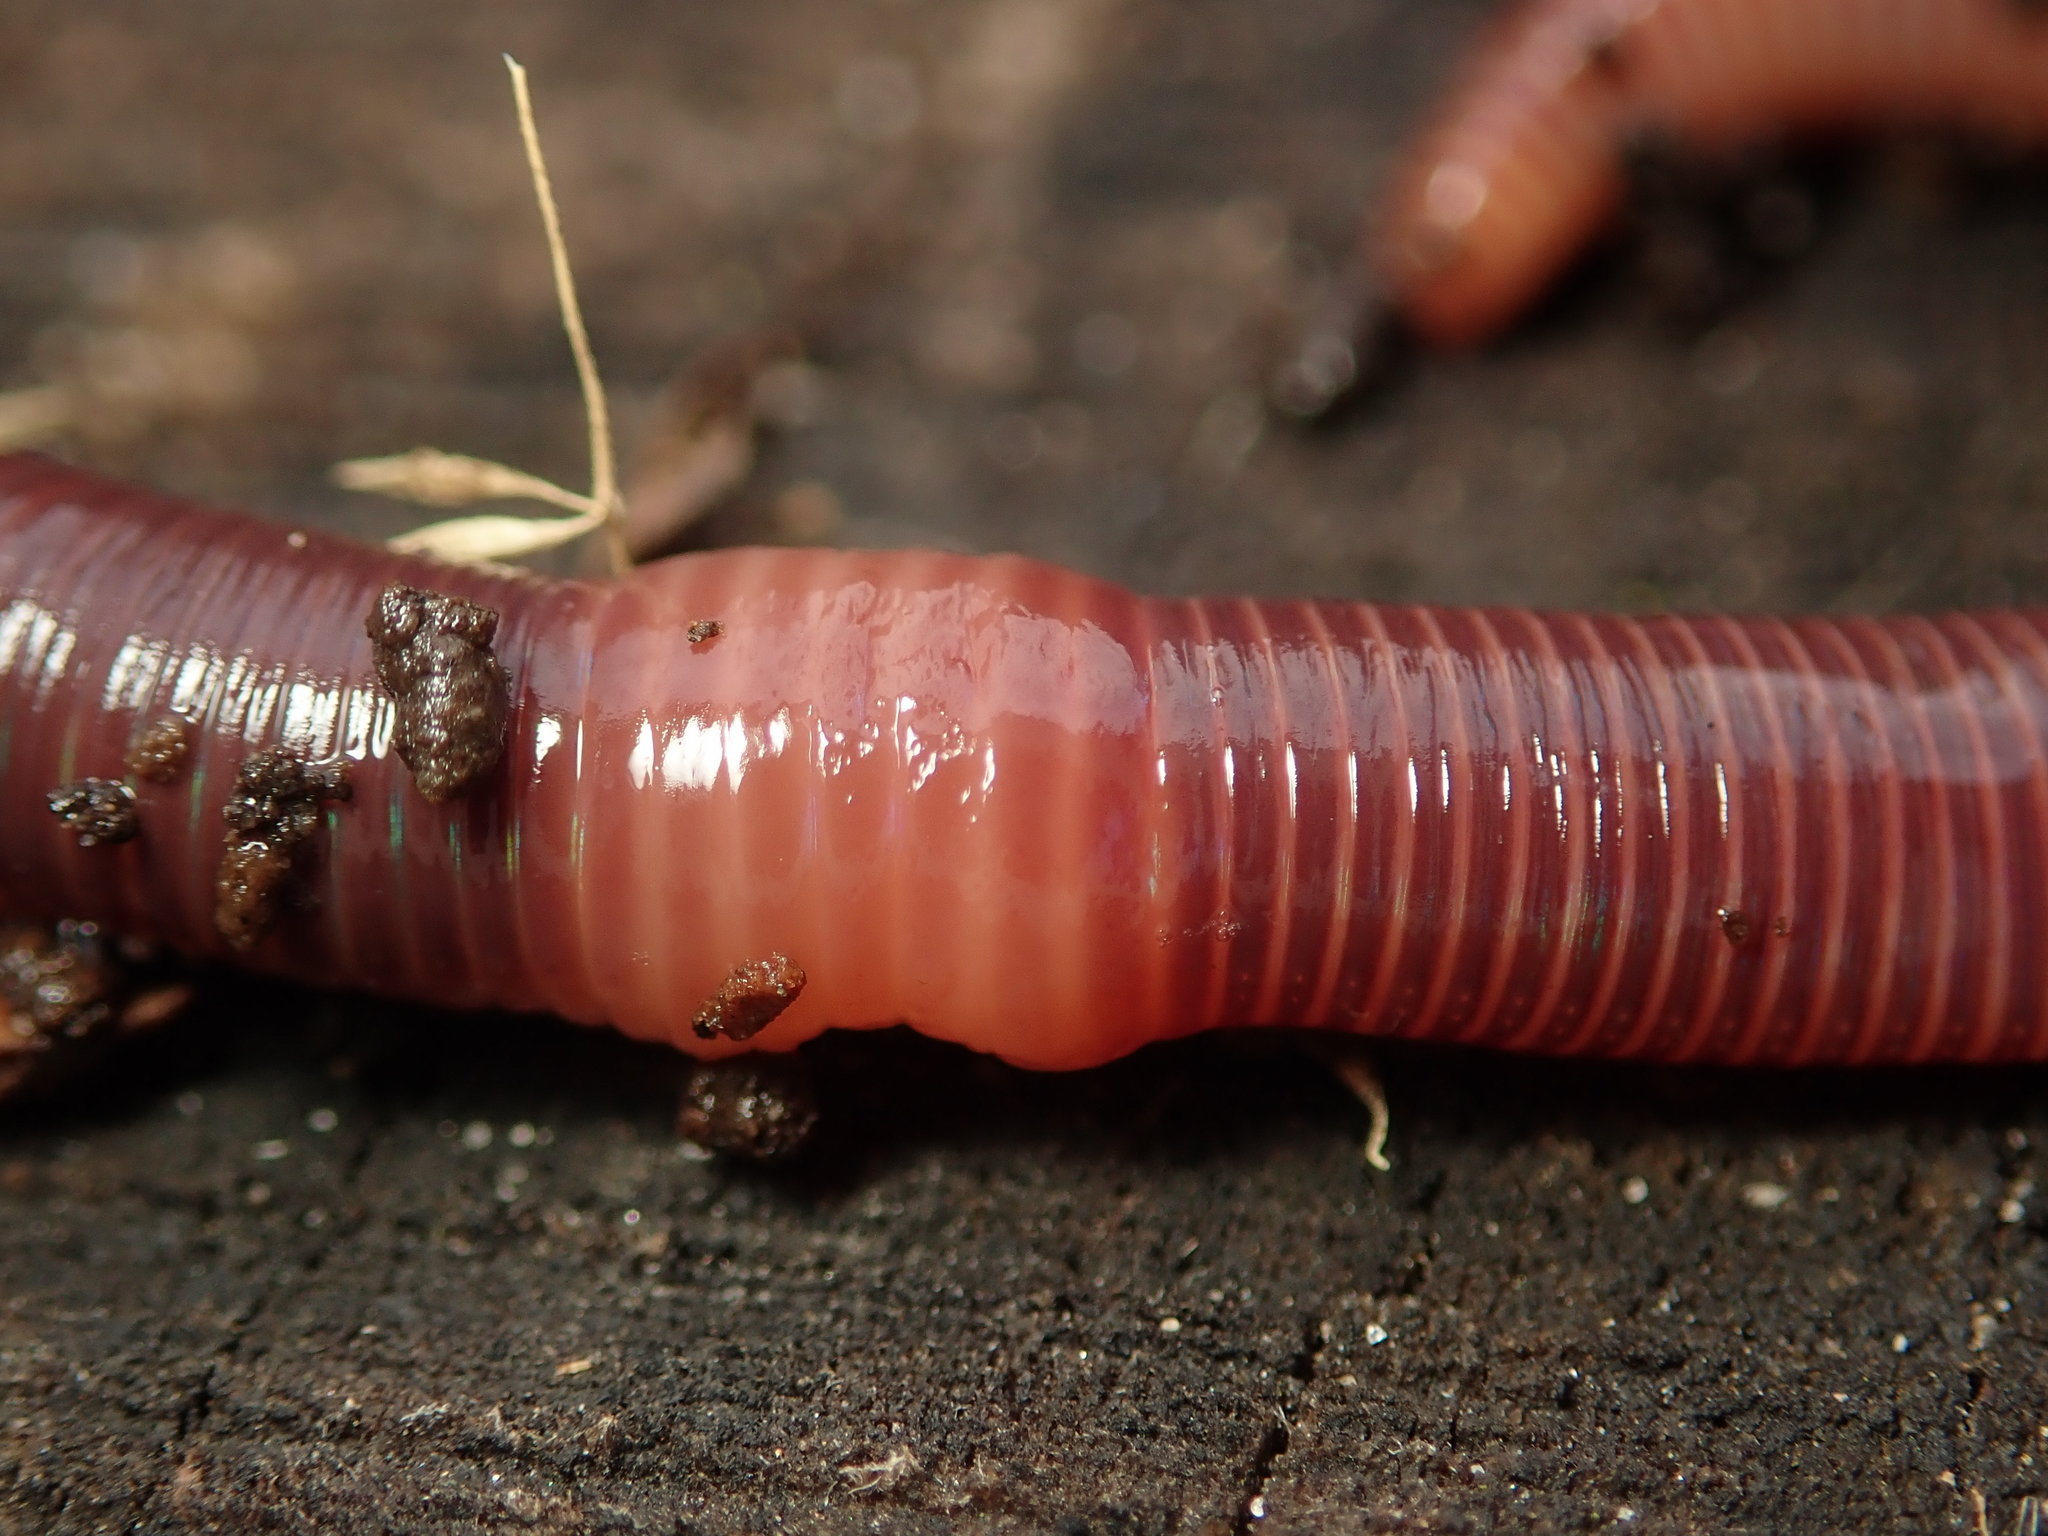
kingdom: Animalia
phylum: Annelida
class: Clitellata
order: Crassiclitellata
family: Lumbricidae
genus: Eisenia
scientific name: Eisenia fetida
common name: Red wiggler
